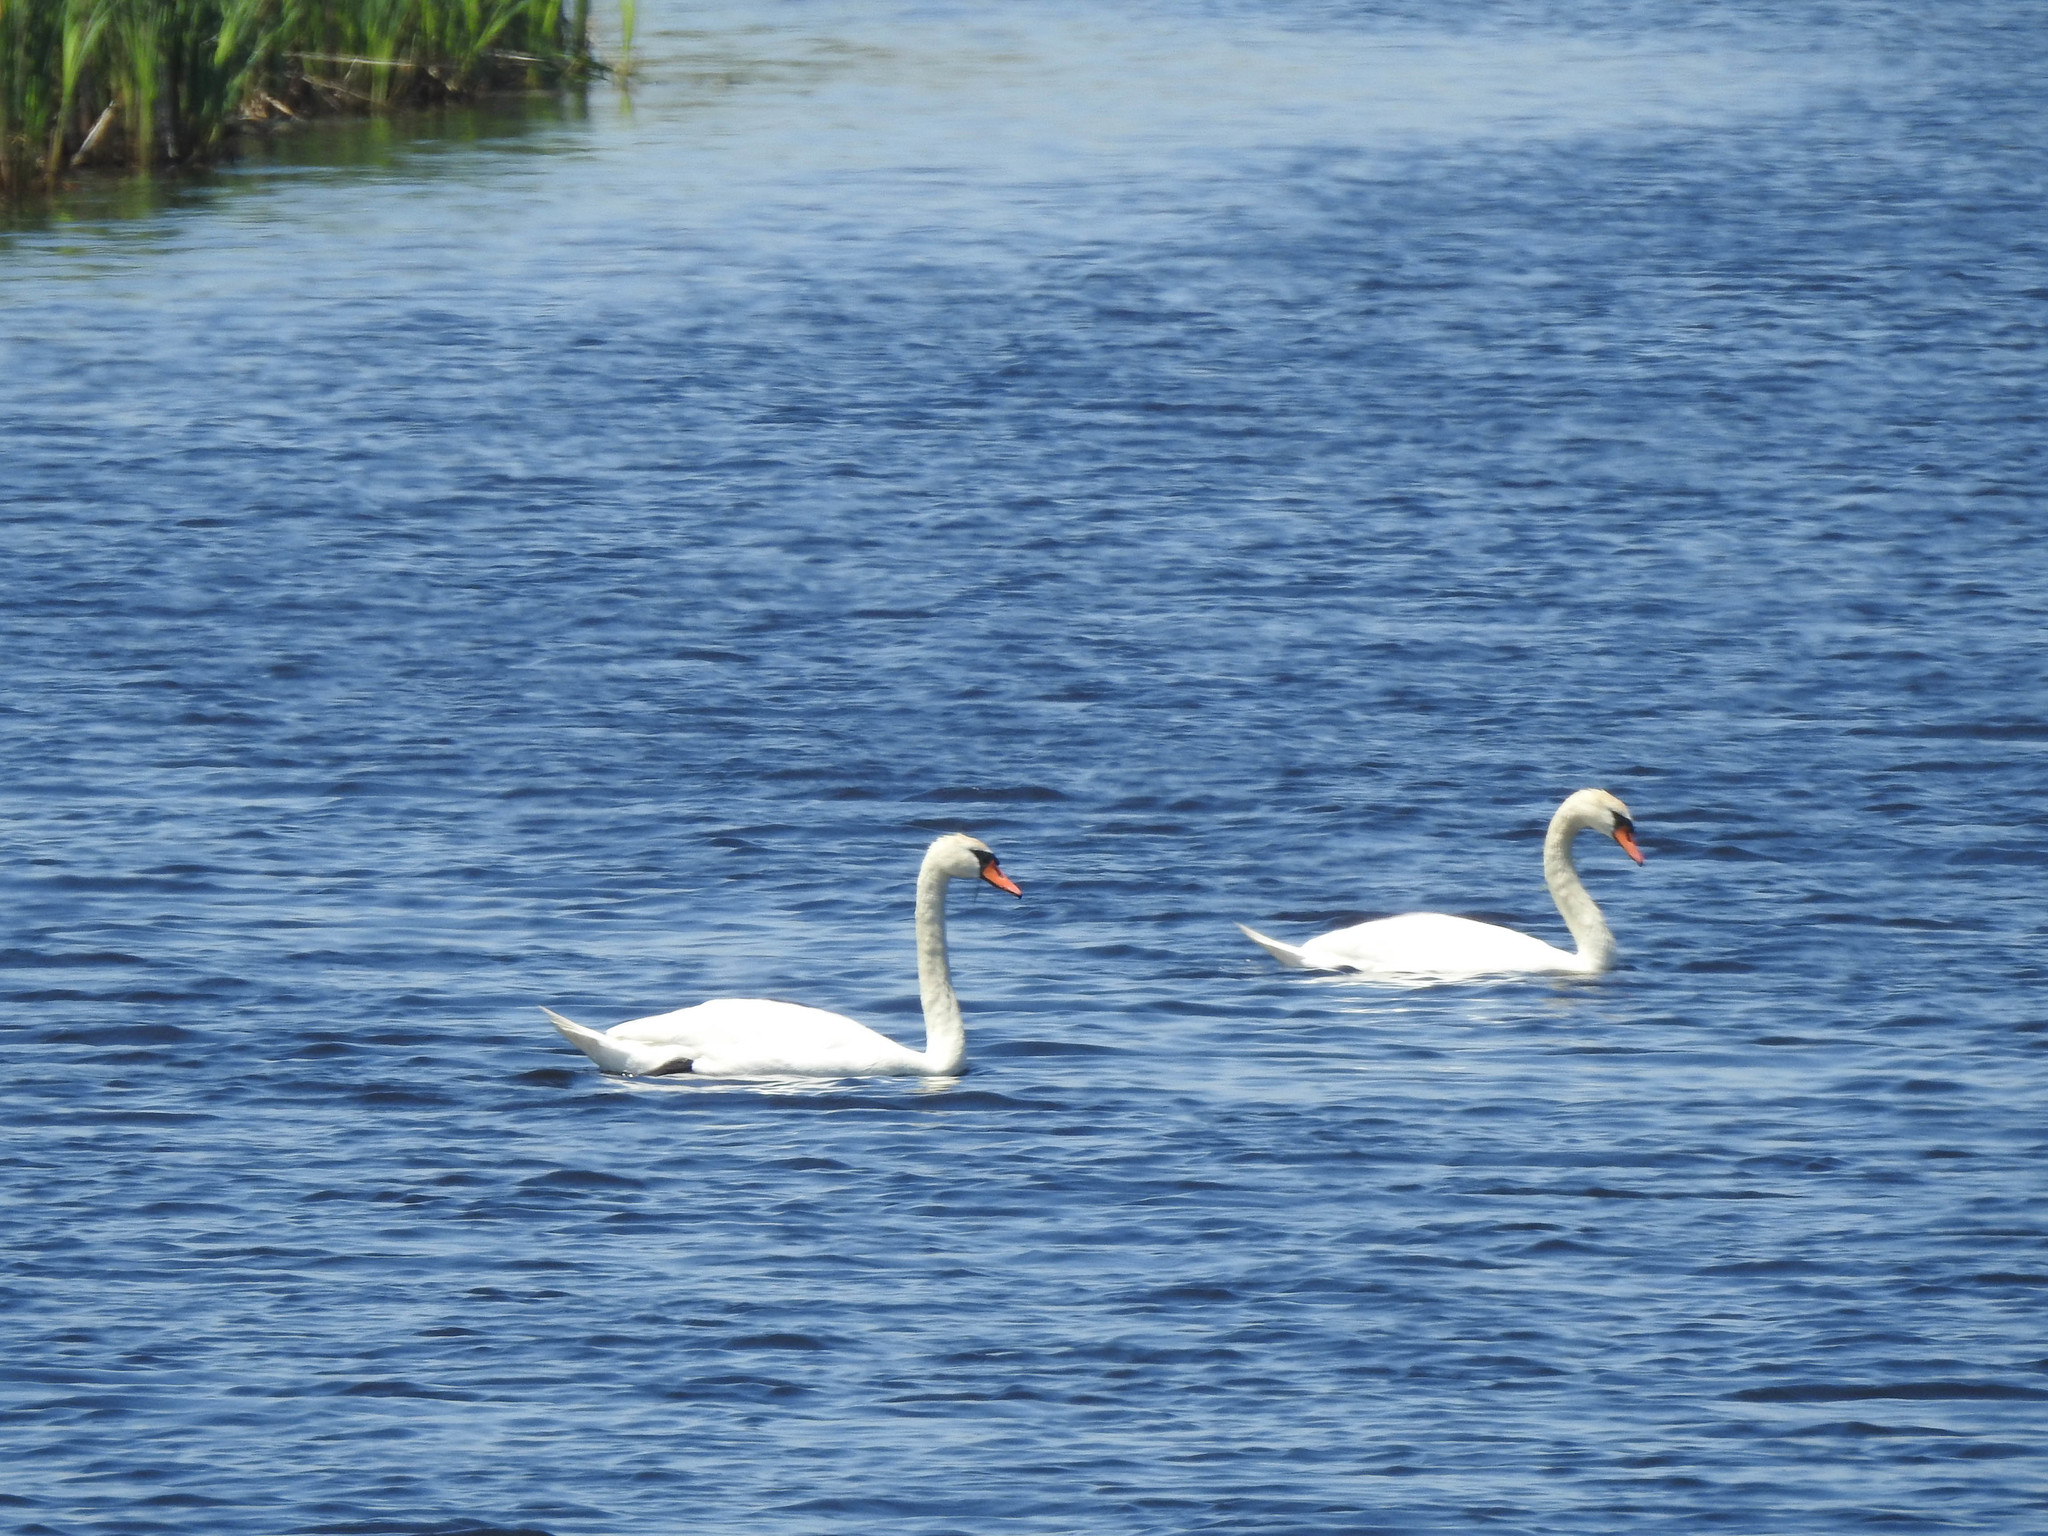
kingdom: Animalia
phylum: Chordata
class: Aves
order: Anseriformes
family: Anatidae
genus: Cygnus
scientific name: Cygnus olor
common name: Mute swan
